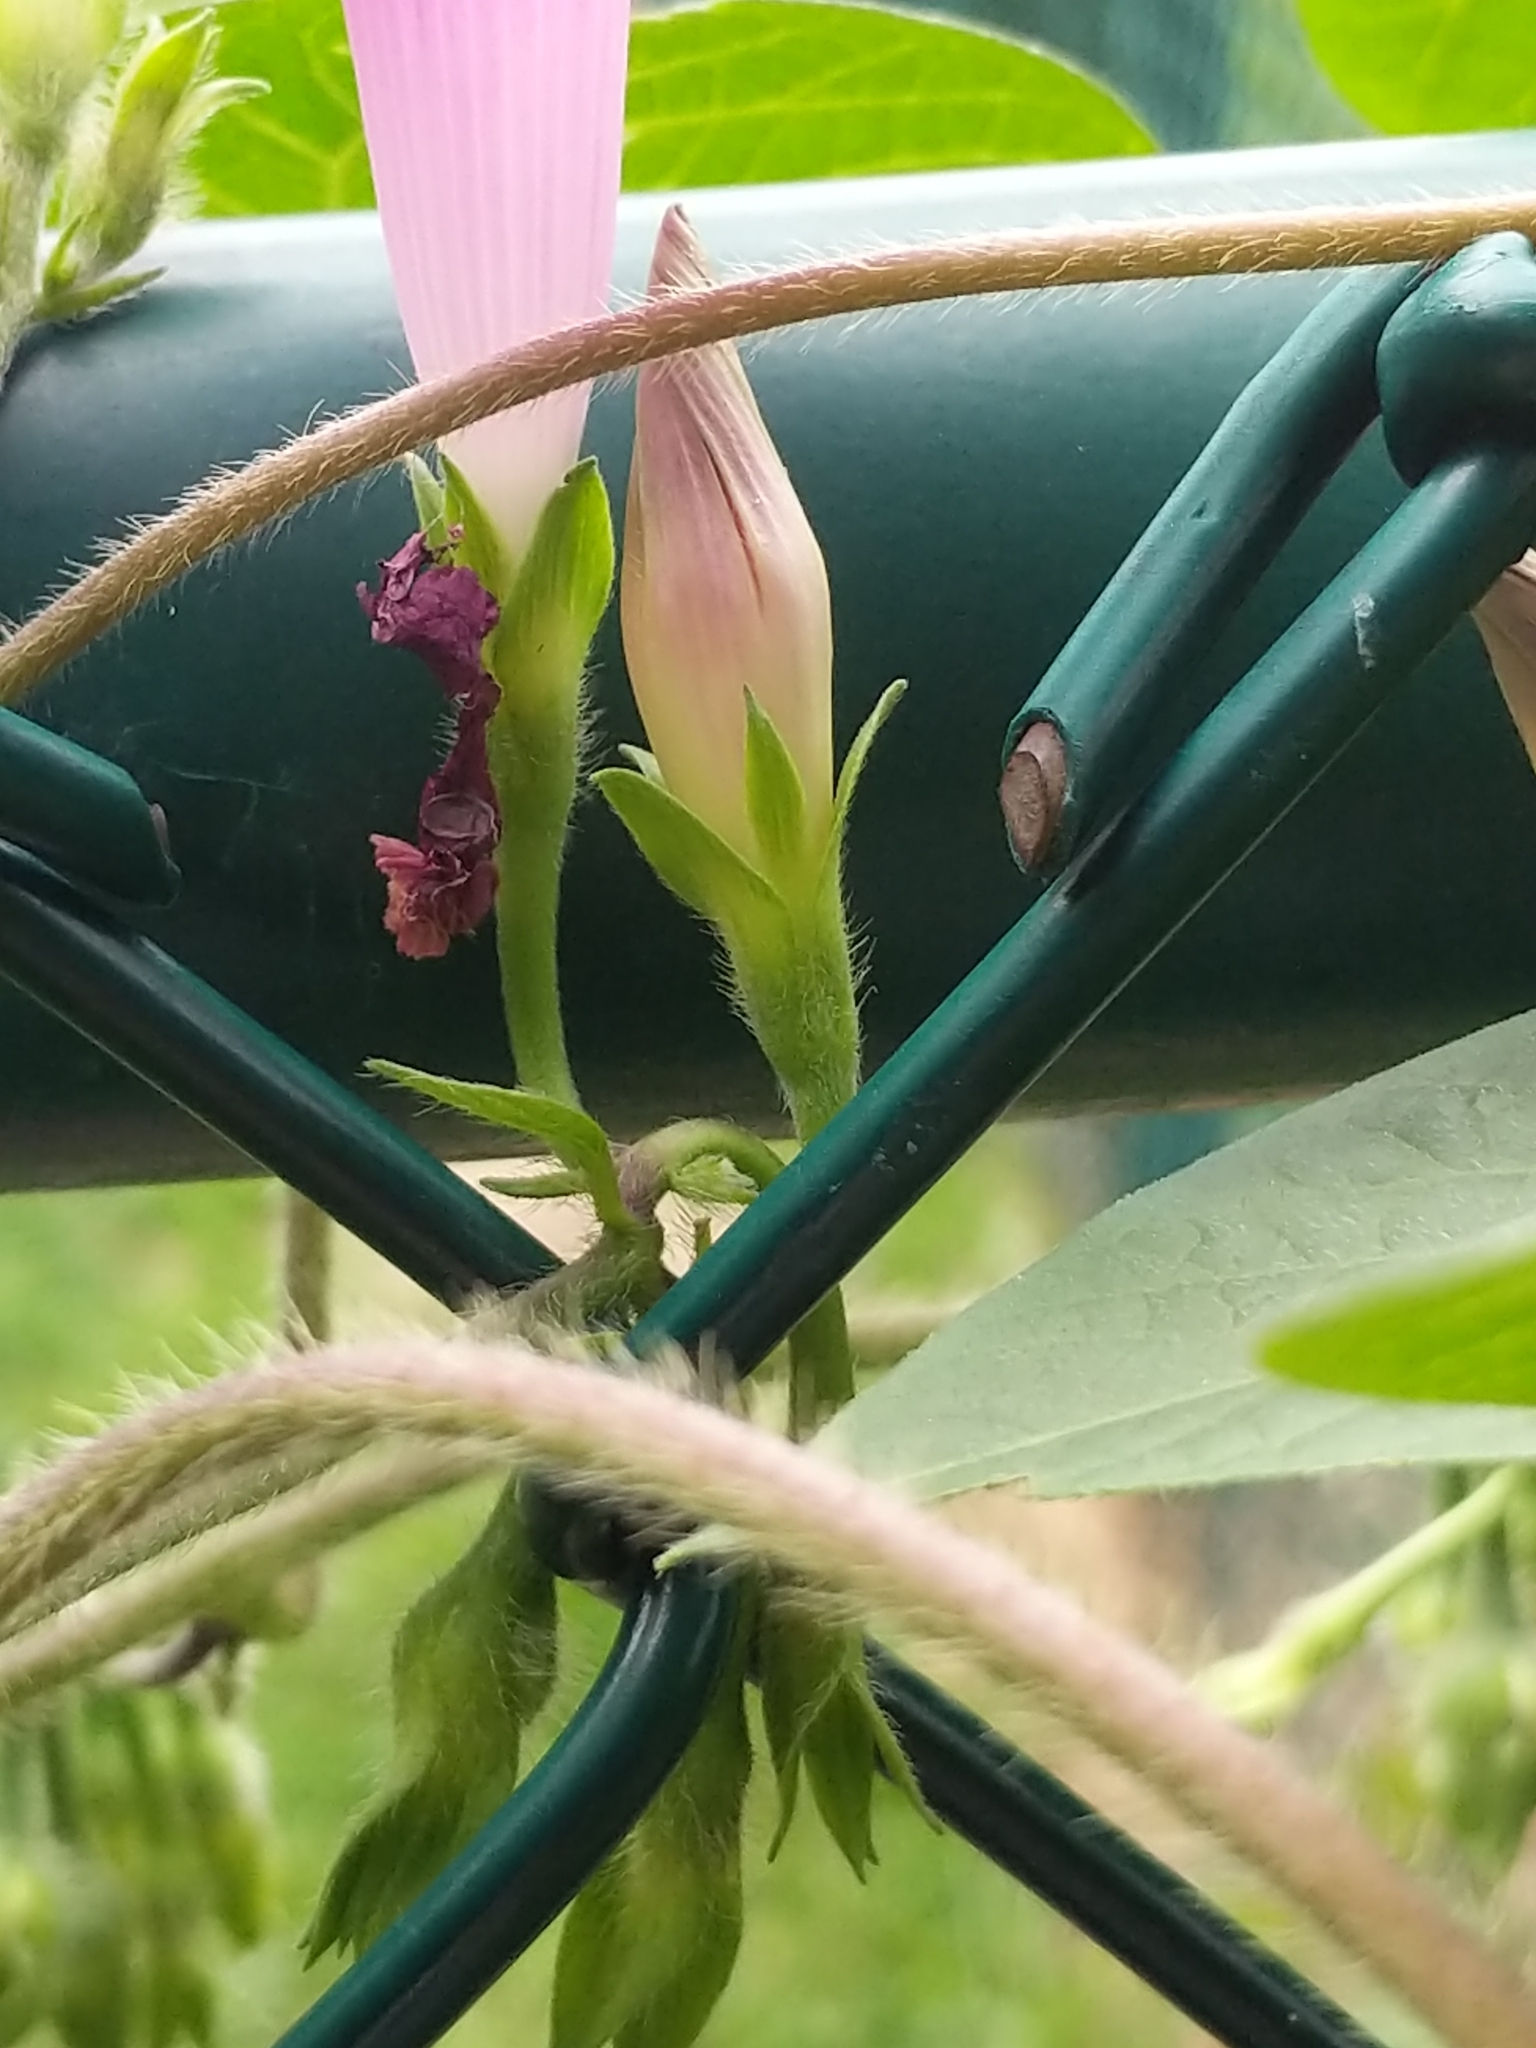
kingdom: Plantae
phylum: Tracheophyta
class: Magnoliopsida
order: Solanales
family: Convolvulaceae
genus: Ipomoea
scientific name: Ipomoea purpurea
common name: Common morning-glory
